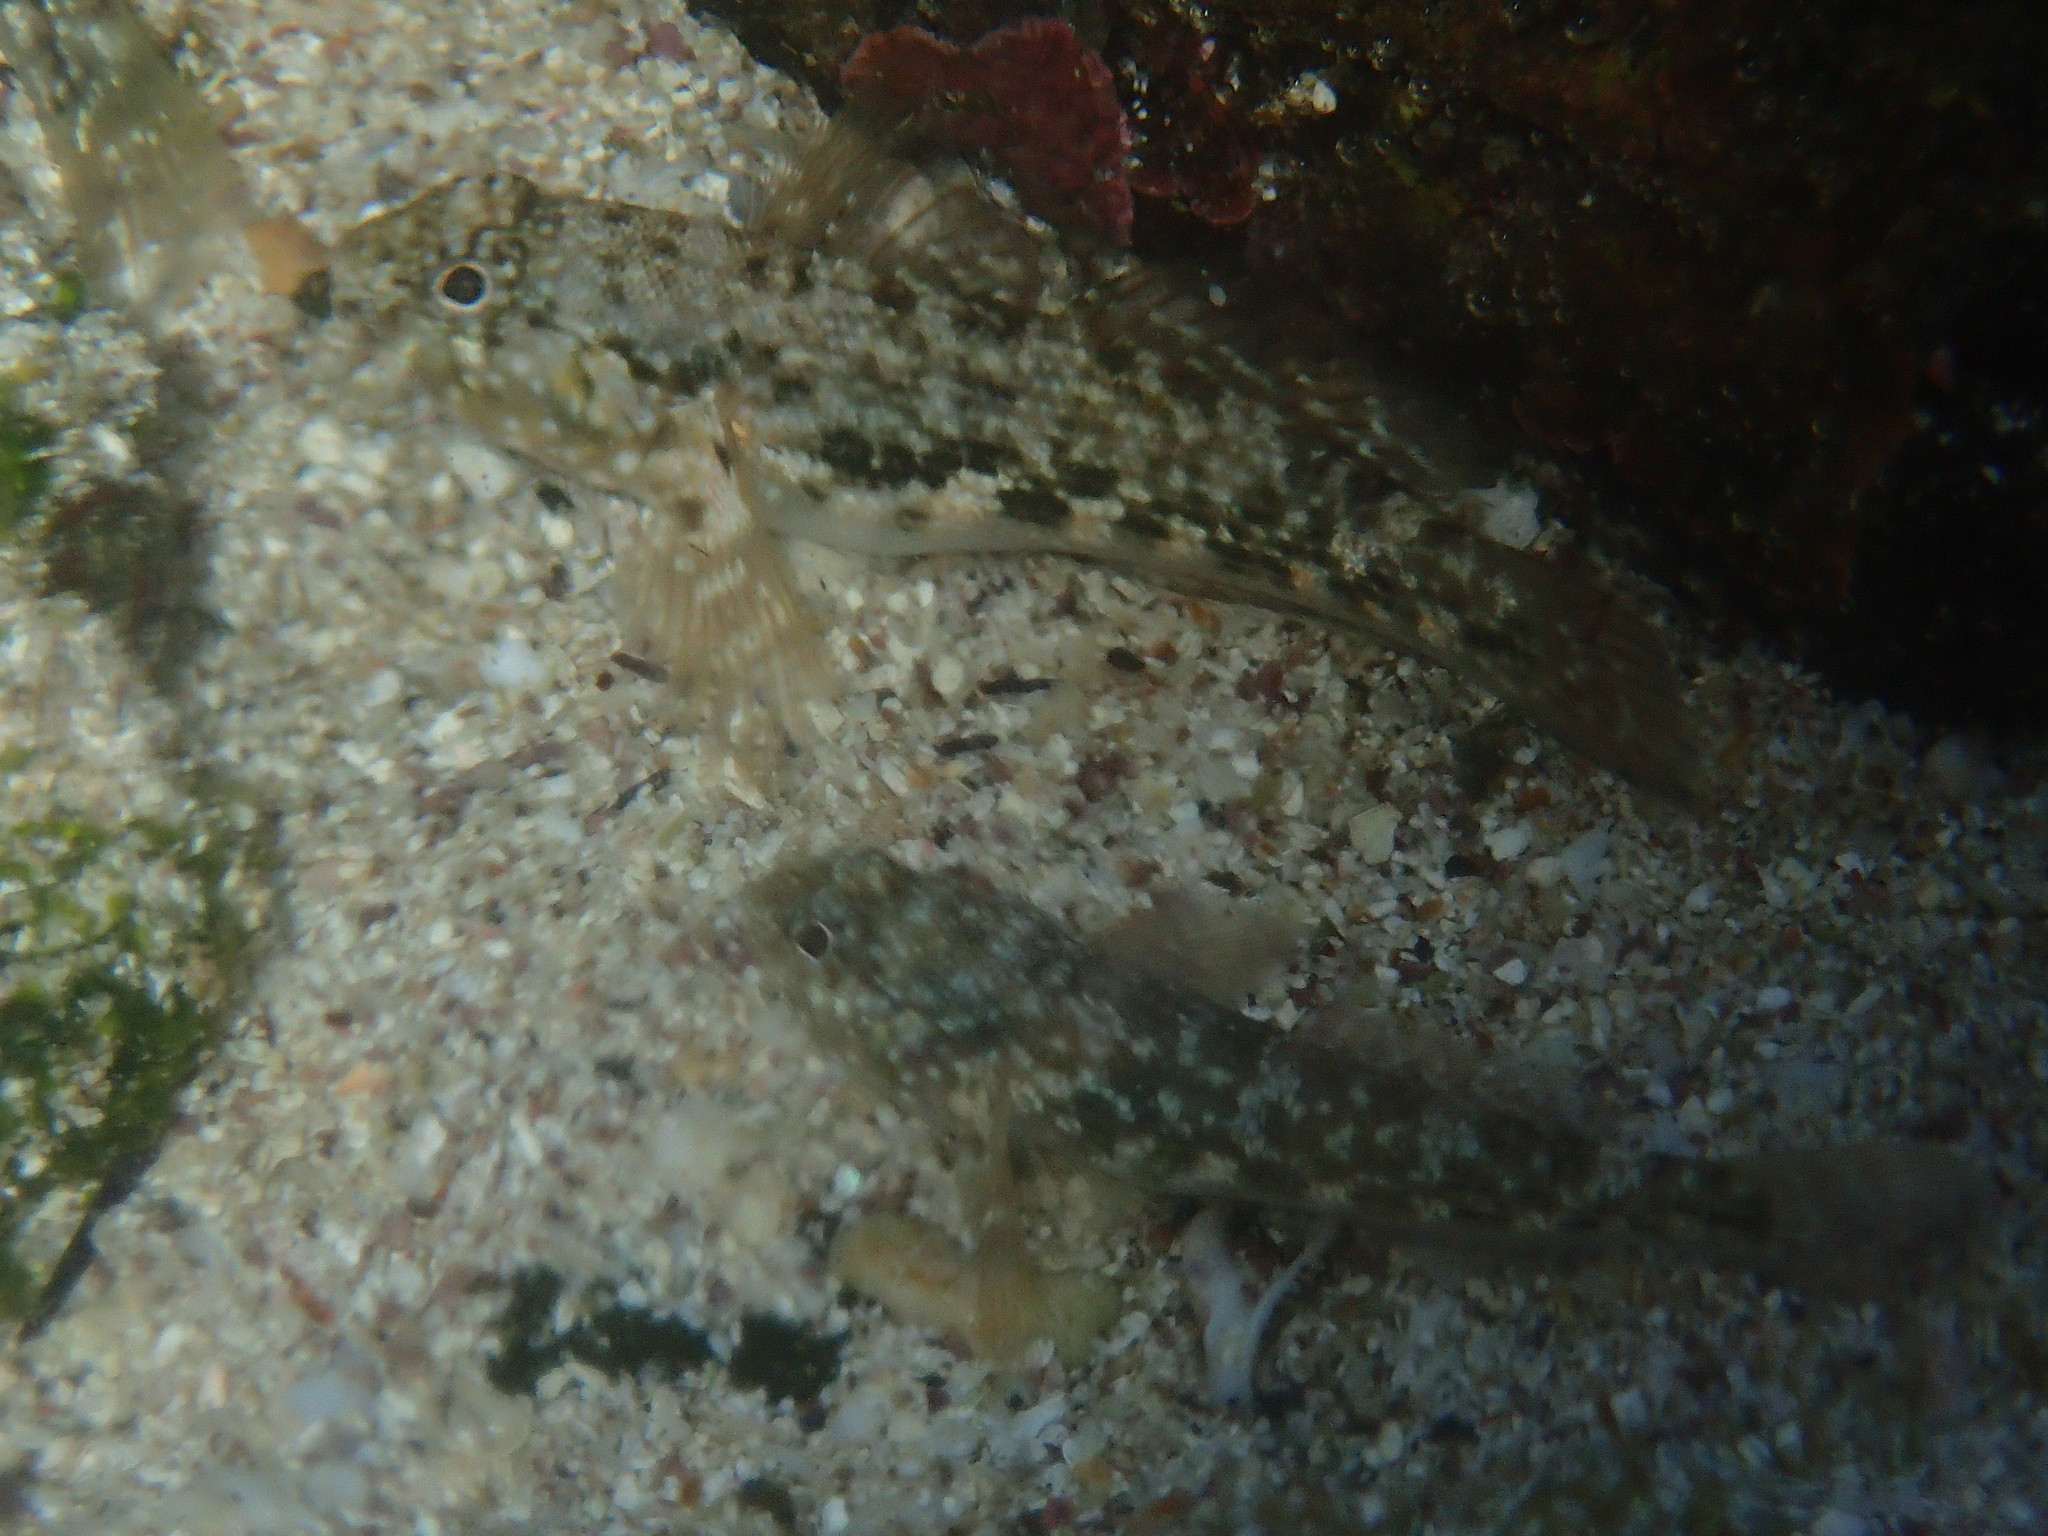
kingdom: Animalia
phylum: Chordata
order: Perciformes
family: Gobiidae
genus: Bathygobius
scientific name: Bathygobius lineatus
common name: Southern frillfin
